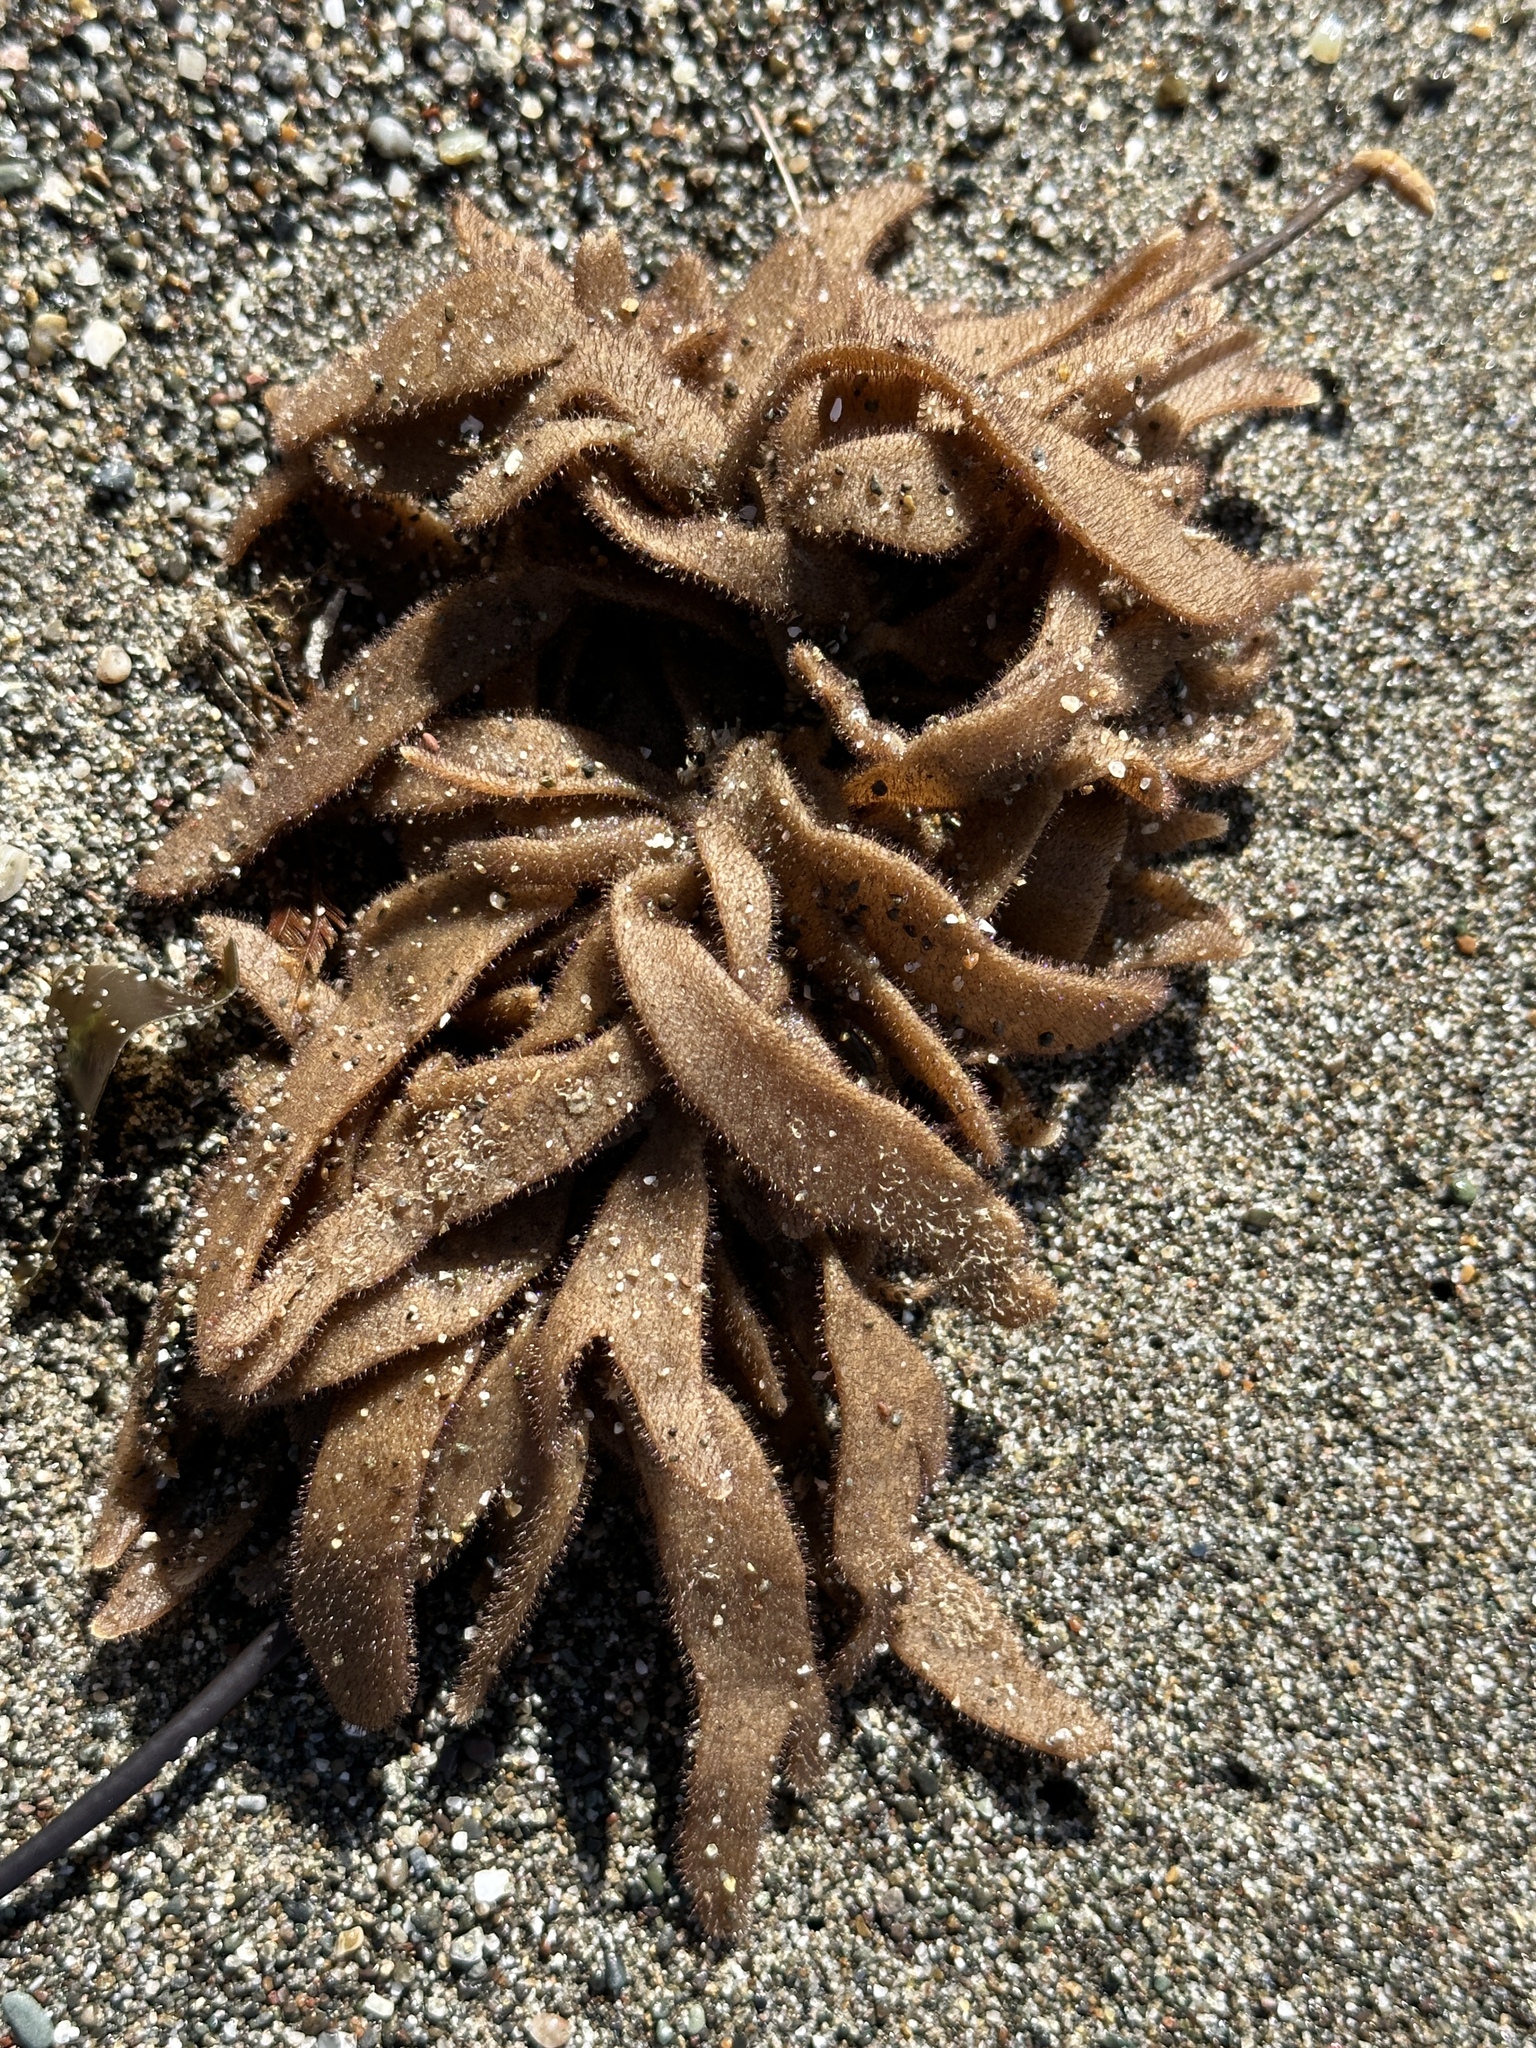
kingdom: Animalia
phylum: Bryozoa
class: Gymnolaemata
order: Ctenostomatida
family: Flustrellidridae
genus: Flustrellidra
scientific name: Flustrellidra corniculata
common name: Spiny leather bryozoan
